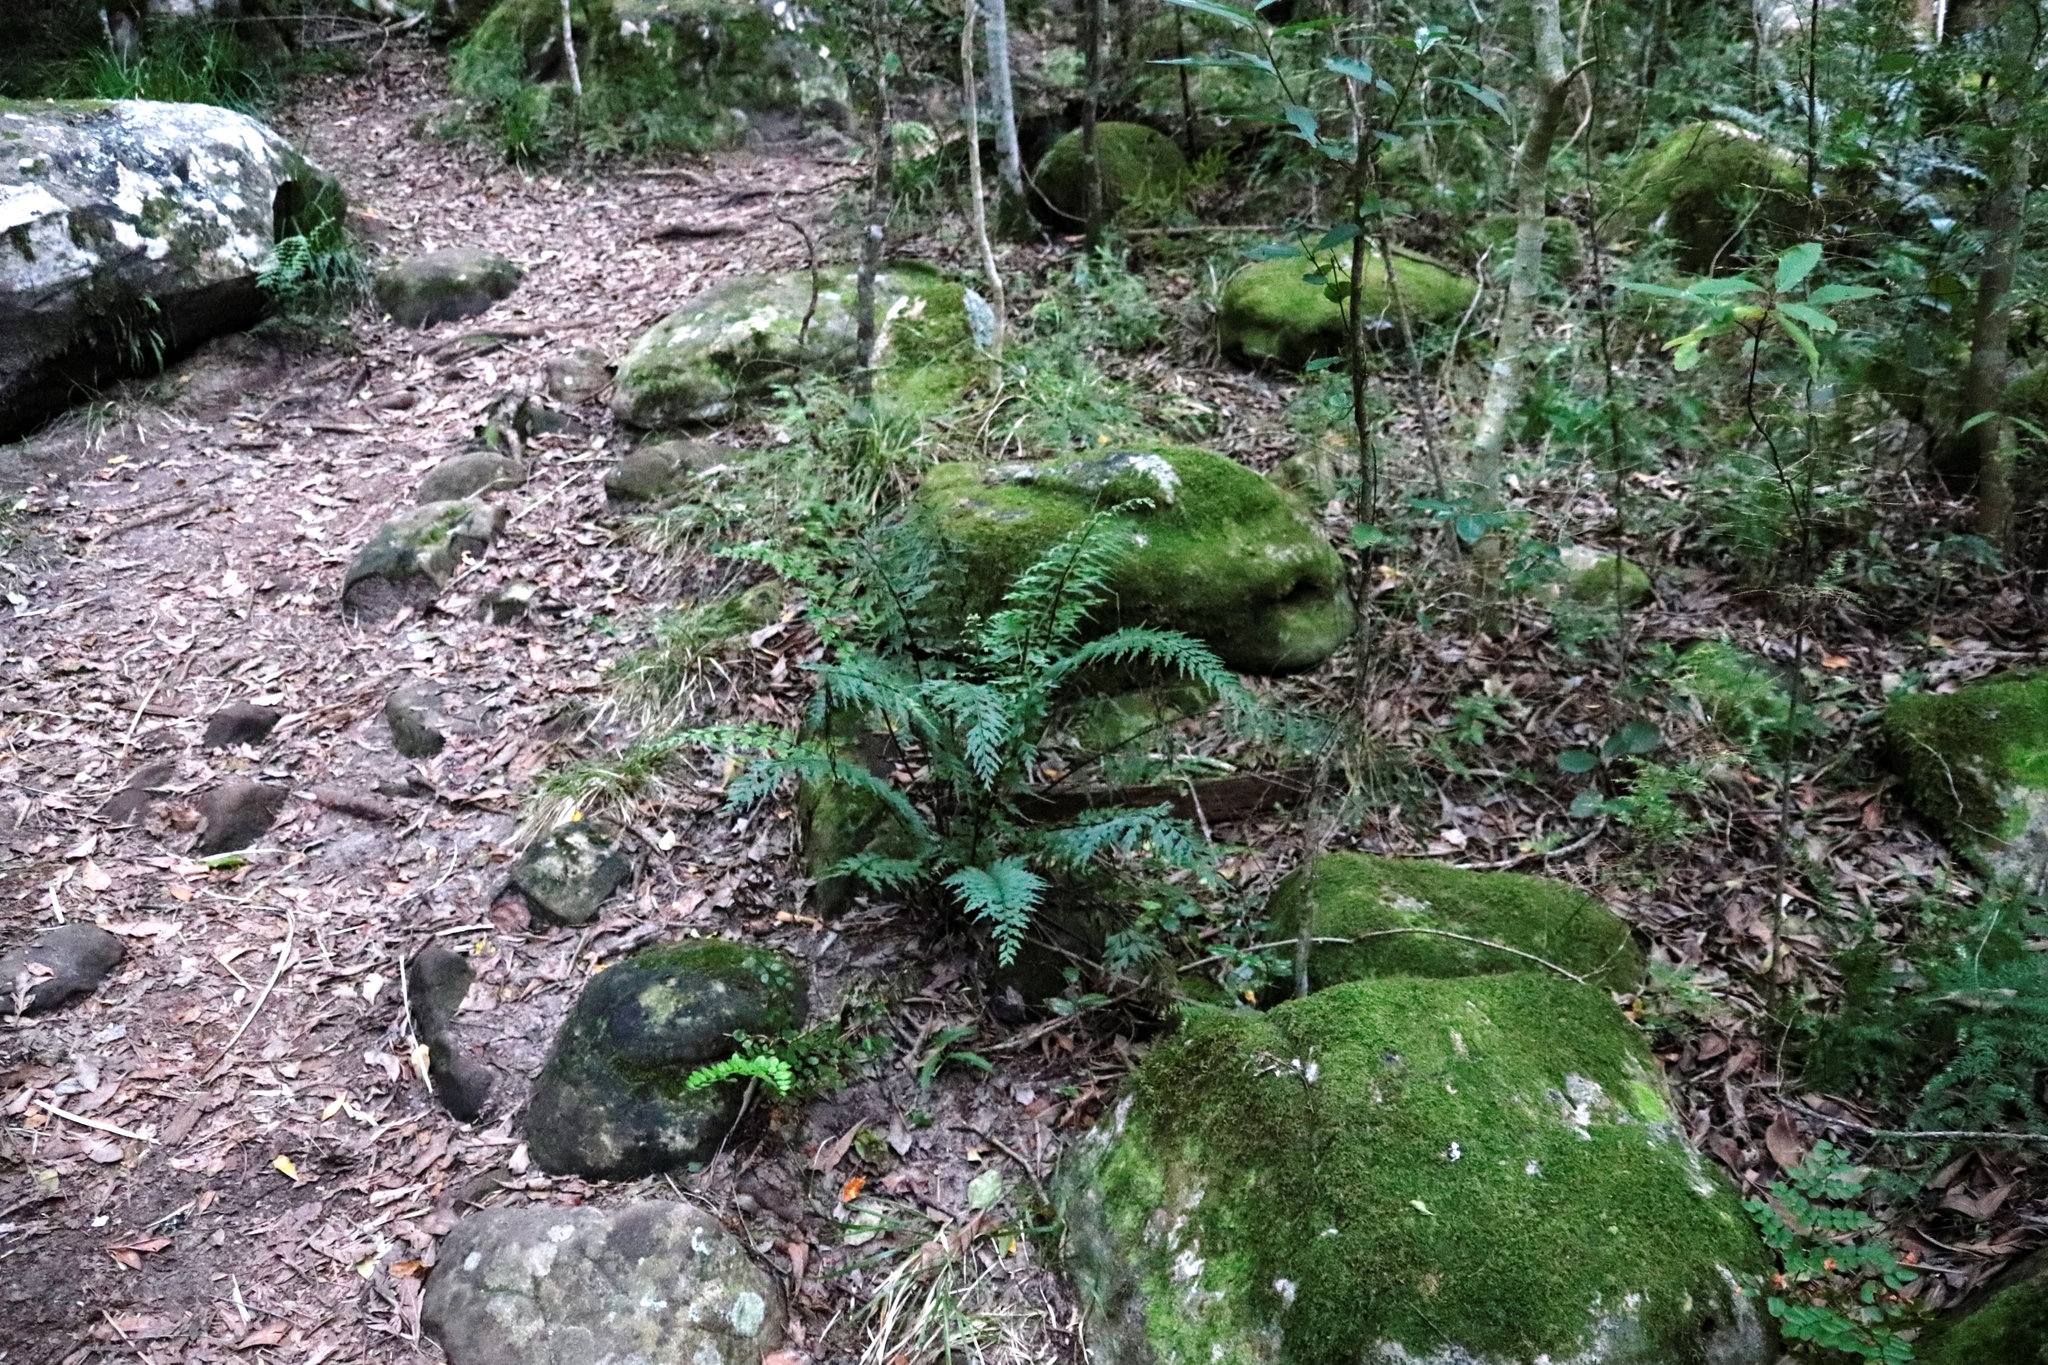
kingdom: Plantae
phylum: Tracheophyta
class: Polypodiopsida
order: Polypodiales
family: Aspleniaceae
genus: Asplenium
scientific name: Asplenium aethiopicum
